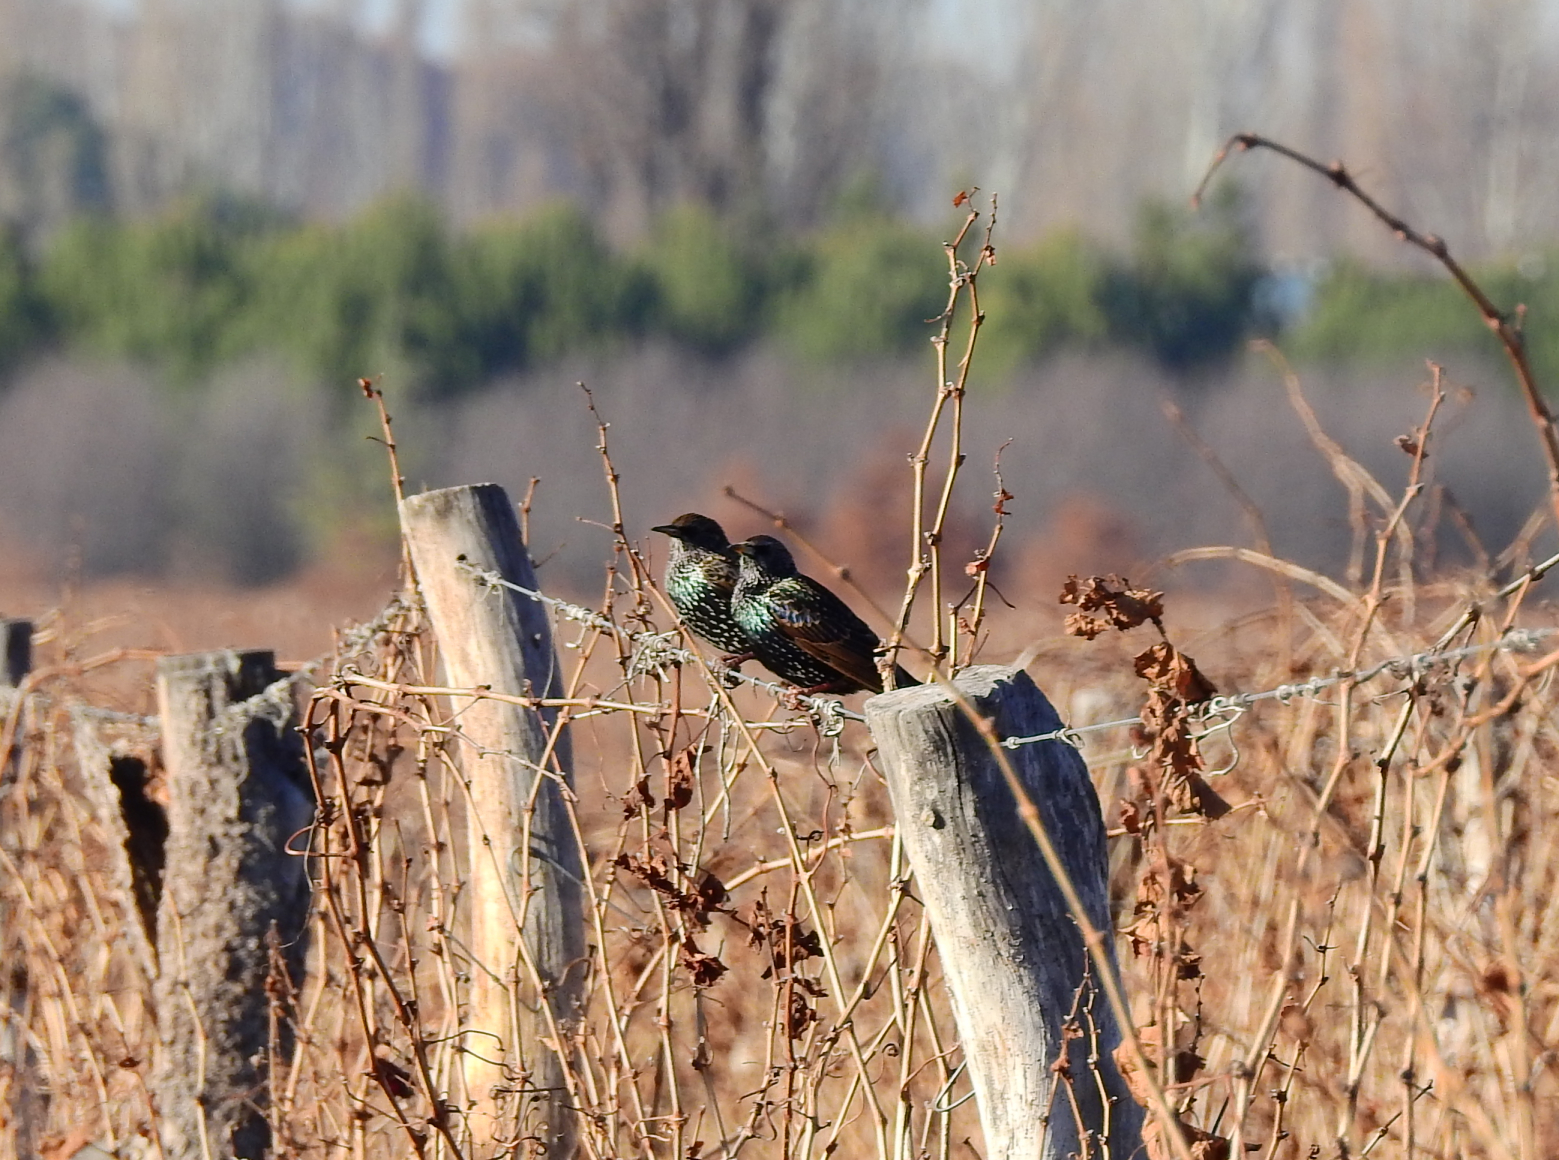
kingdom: Animalia
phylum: Chordata
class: Aves
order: Passeriformes
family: Sturnidae
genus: Sturnus
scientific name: Sturnus vulgaris
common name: Common starling
